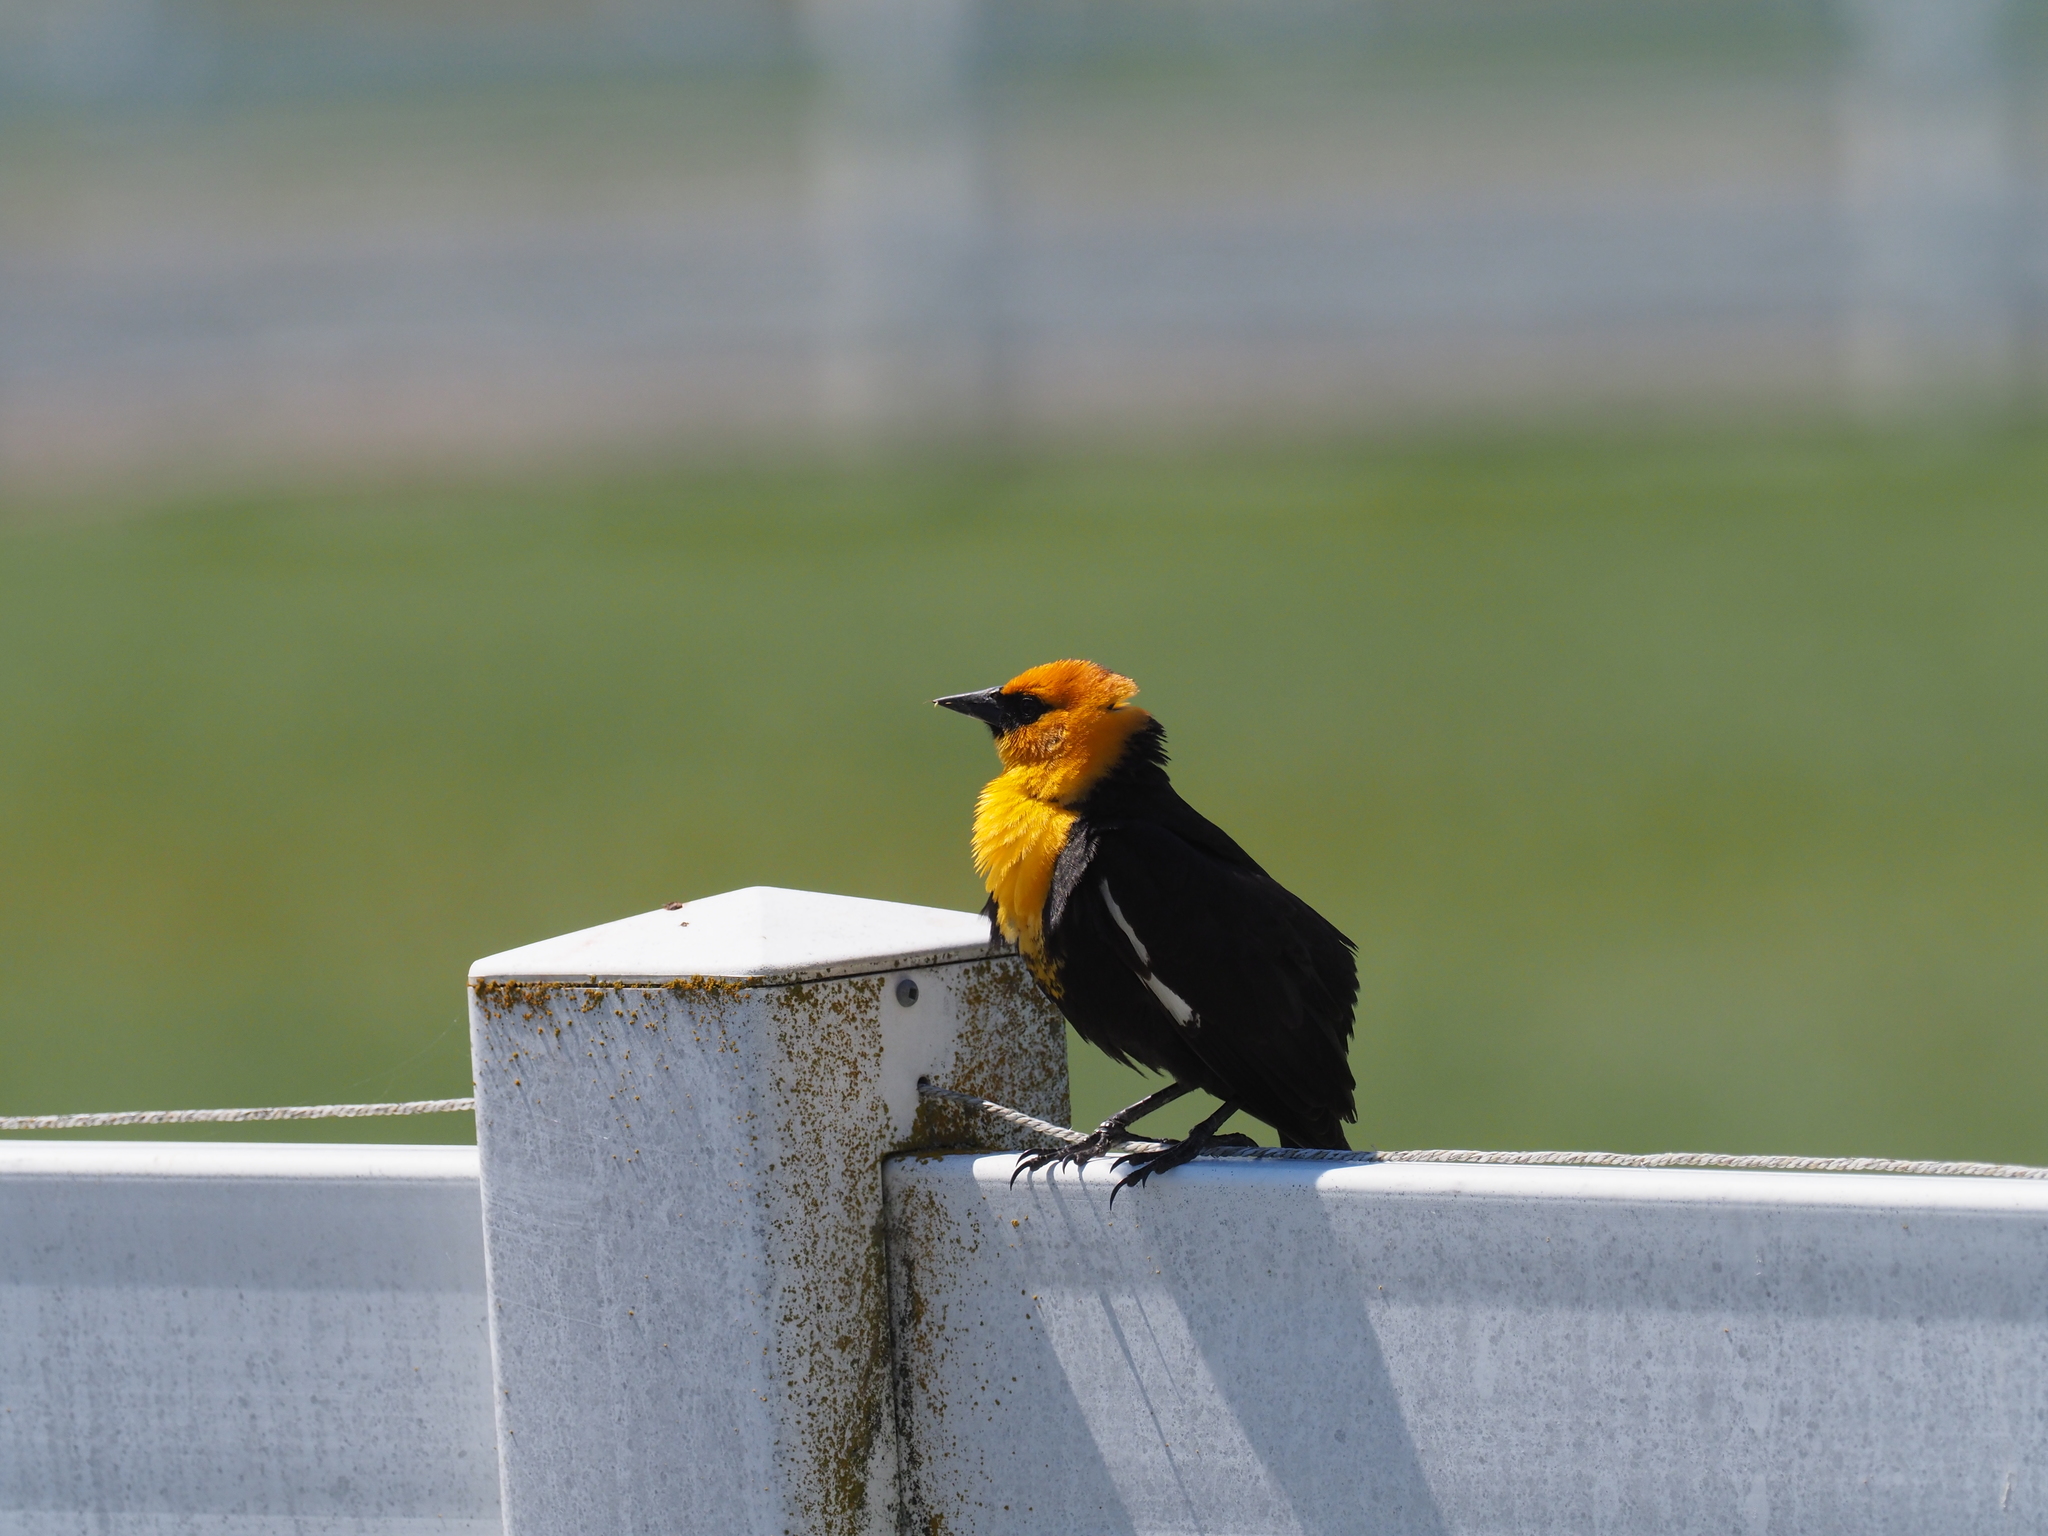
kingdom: Animalia
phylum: Chordata
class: Aves
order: Passeriformes
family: Icteridae
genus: Xanthocephalus
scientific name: Xanthocephalus xanthocephalus
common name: Yellow-headed blackbird
